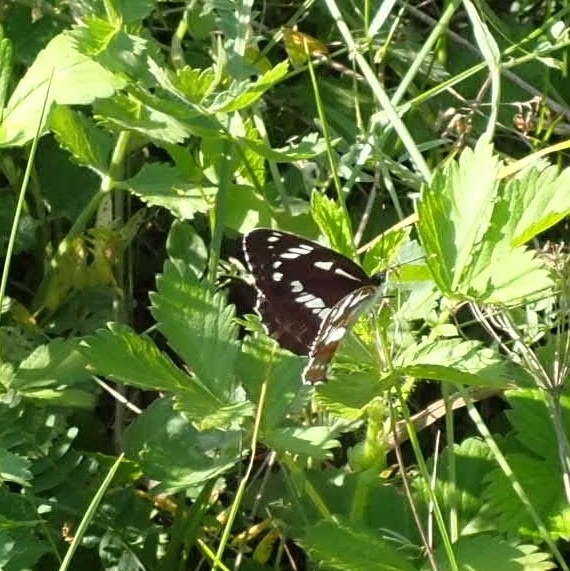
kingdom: Animalia
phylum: Arthropoda
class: Insecta
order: Lepidoptera
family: Nymphalidae
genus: Limenitis
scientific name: Limenitis helmanni
